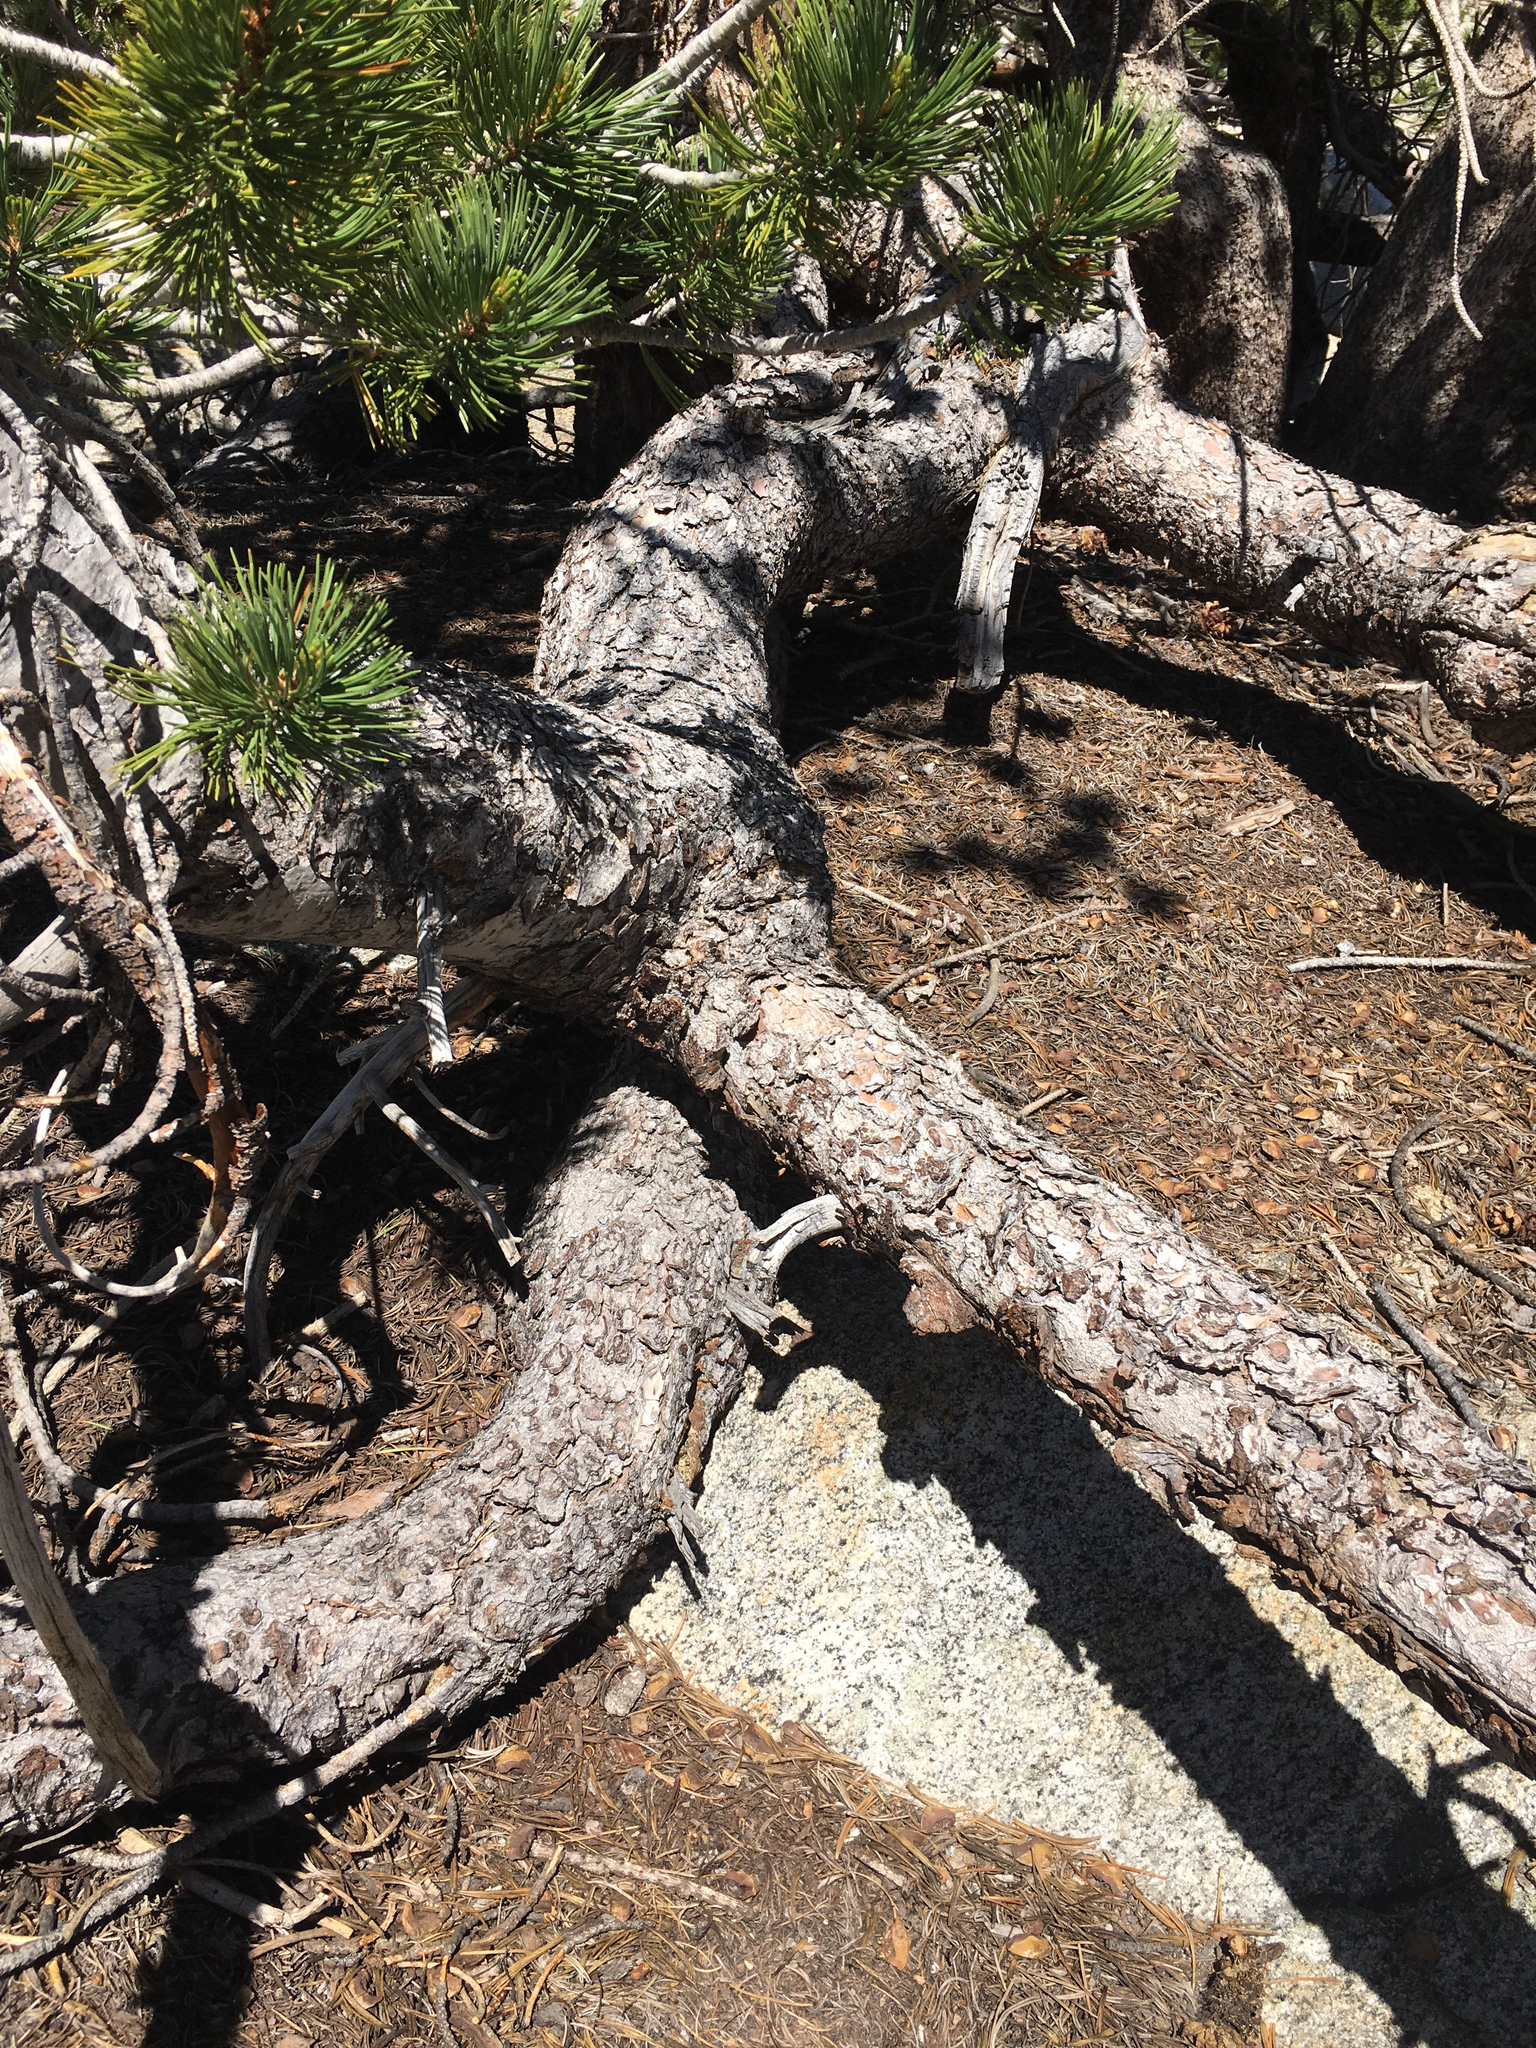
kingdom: Plantae
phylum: Tracheophyta
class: Pinopsida
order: Pinales
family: Pinaceae
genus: Pinus
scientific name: Pinus albicaulis
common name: Whitebark pine
